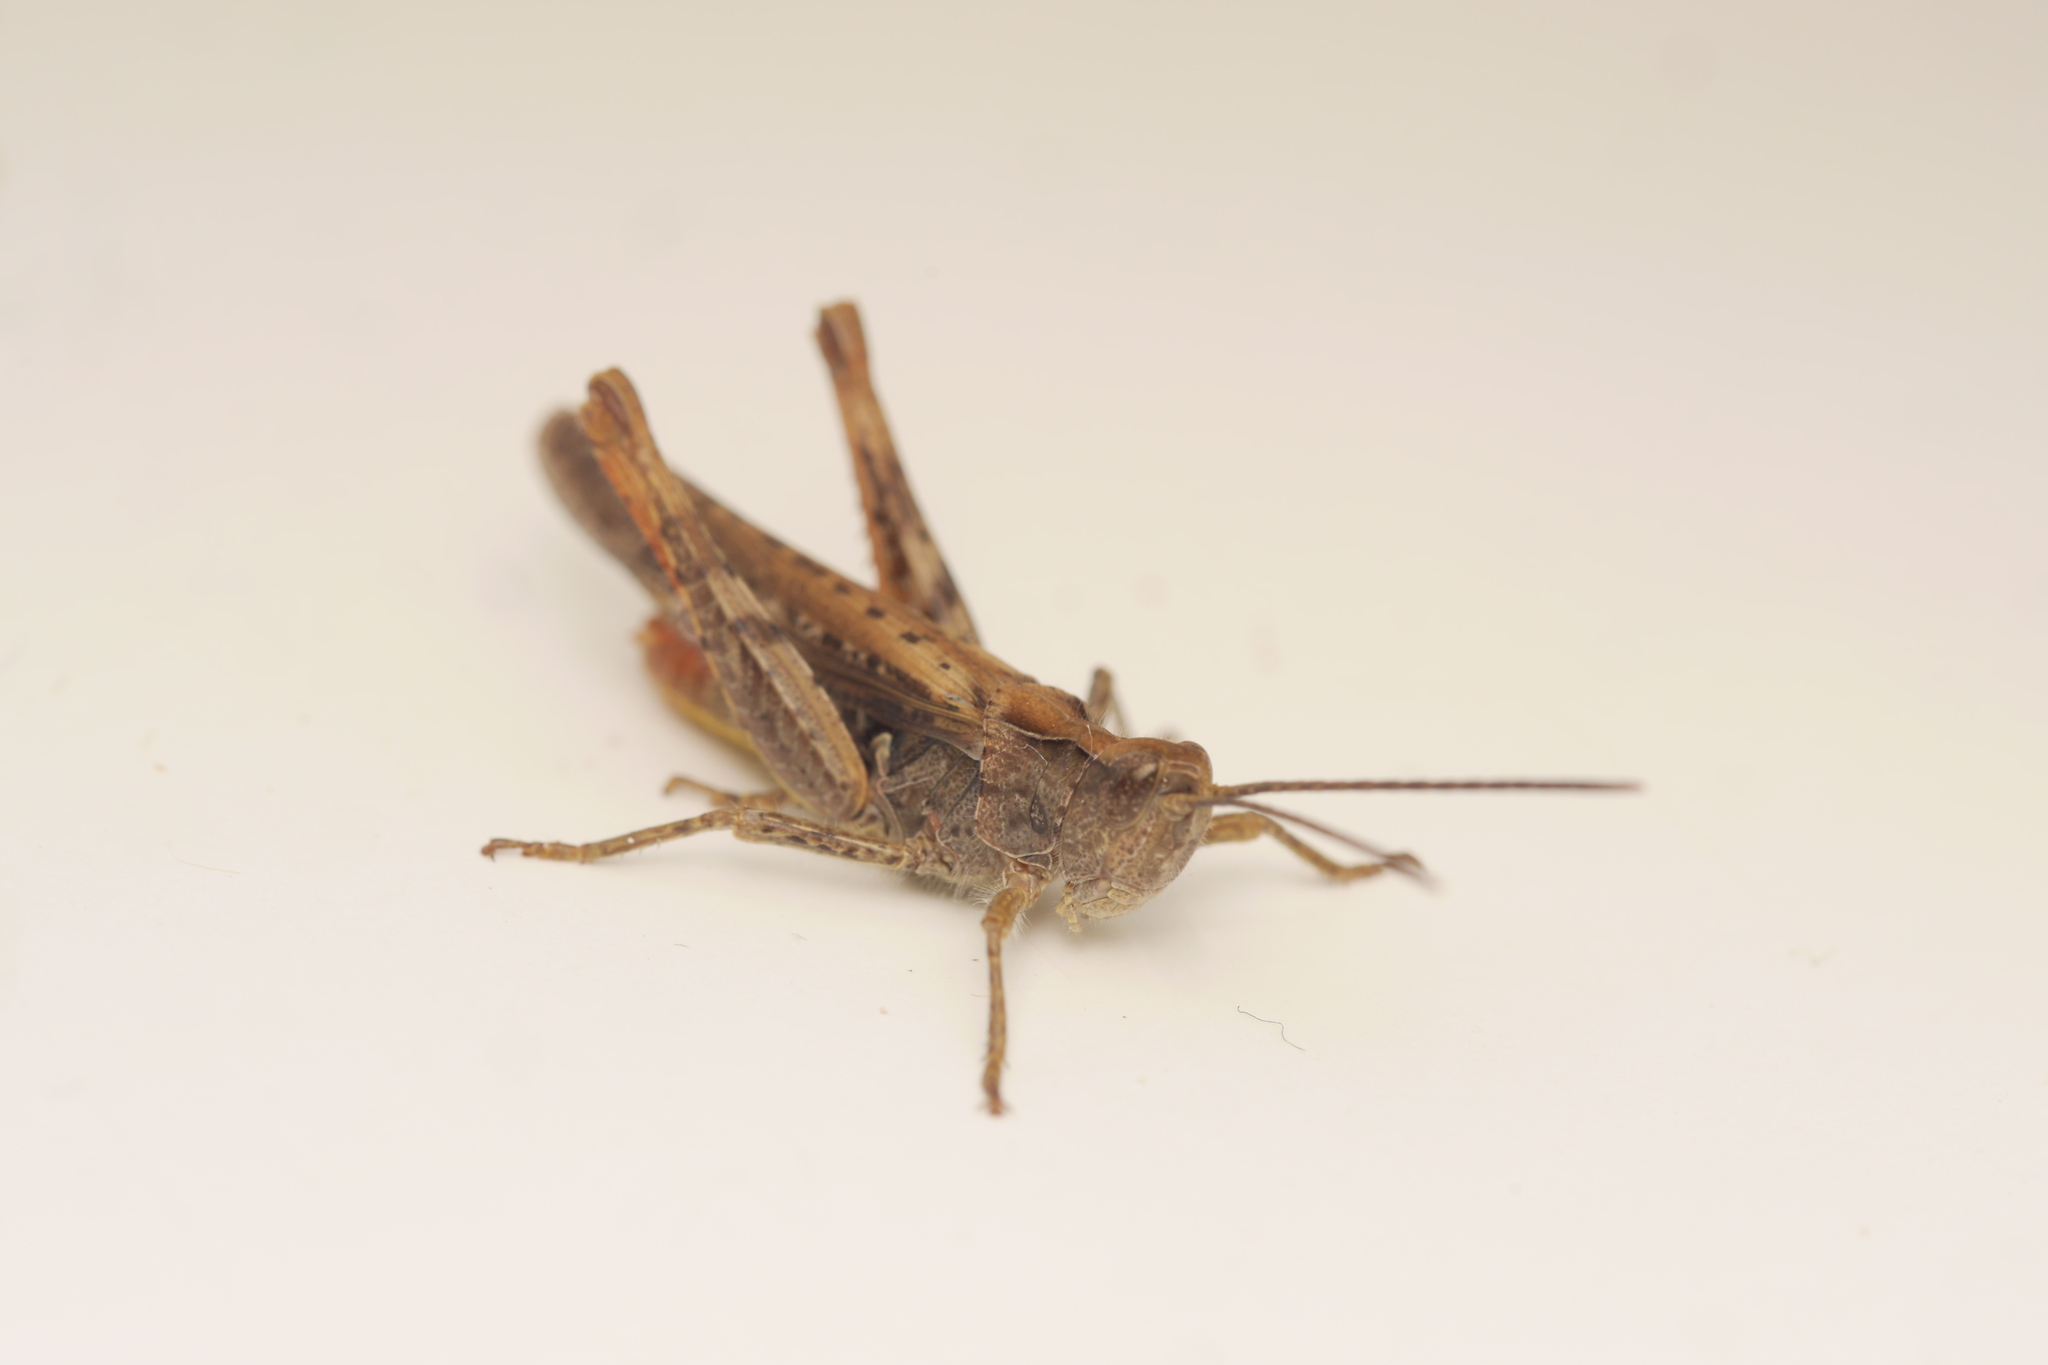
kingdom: Animalia
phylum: Arthropoda
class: Insecta
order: Orthoptera
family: Acrididae
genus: Chorthippus
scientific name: Chorthippus brunneus
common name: Field grasshopper
